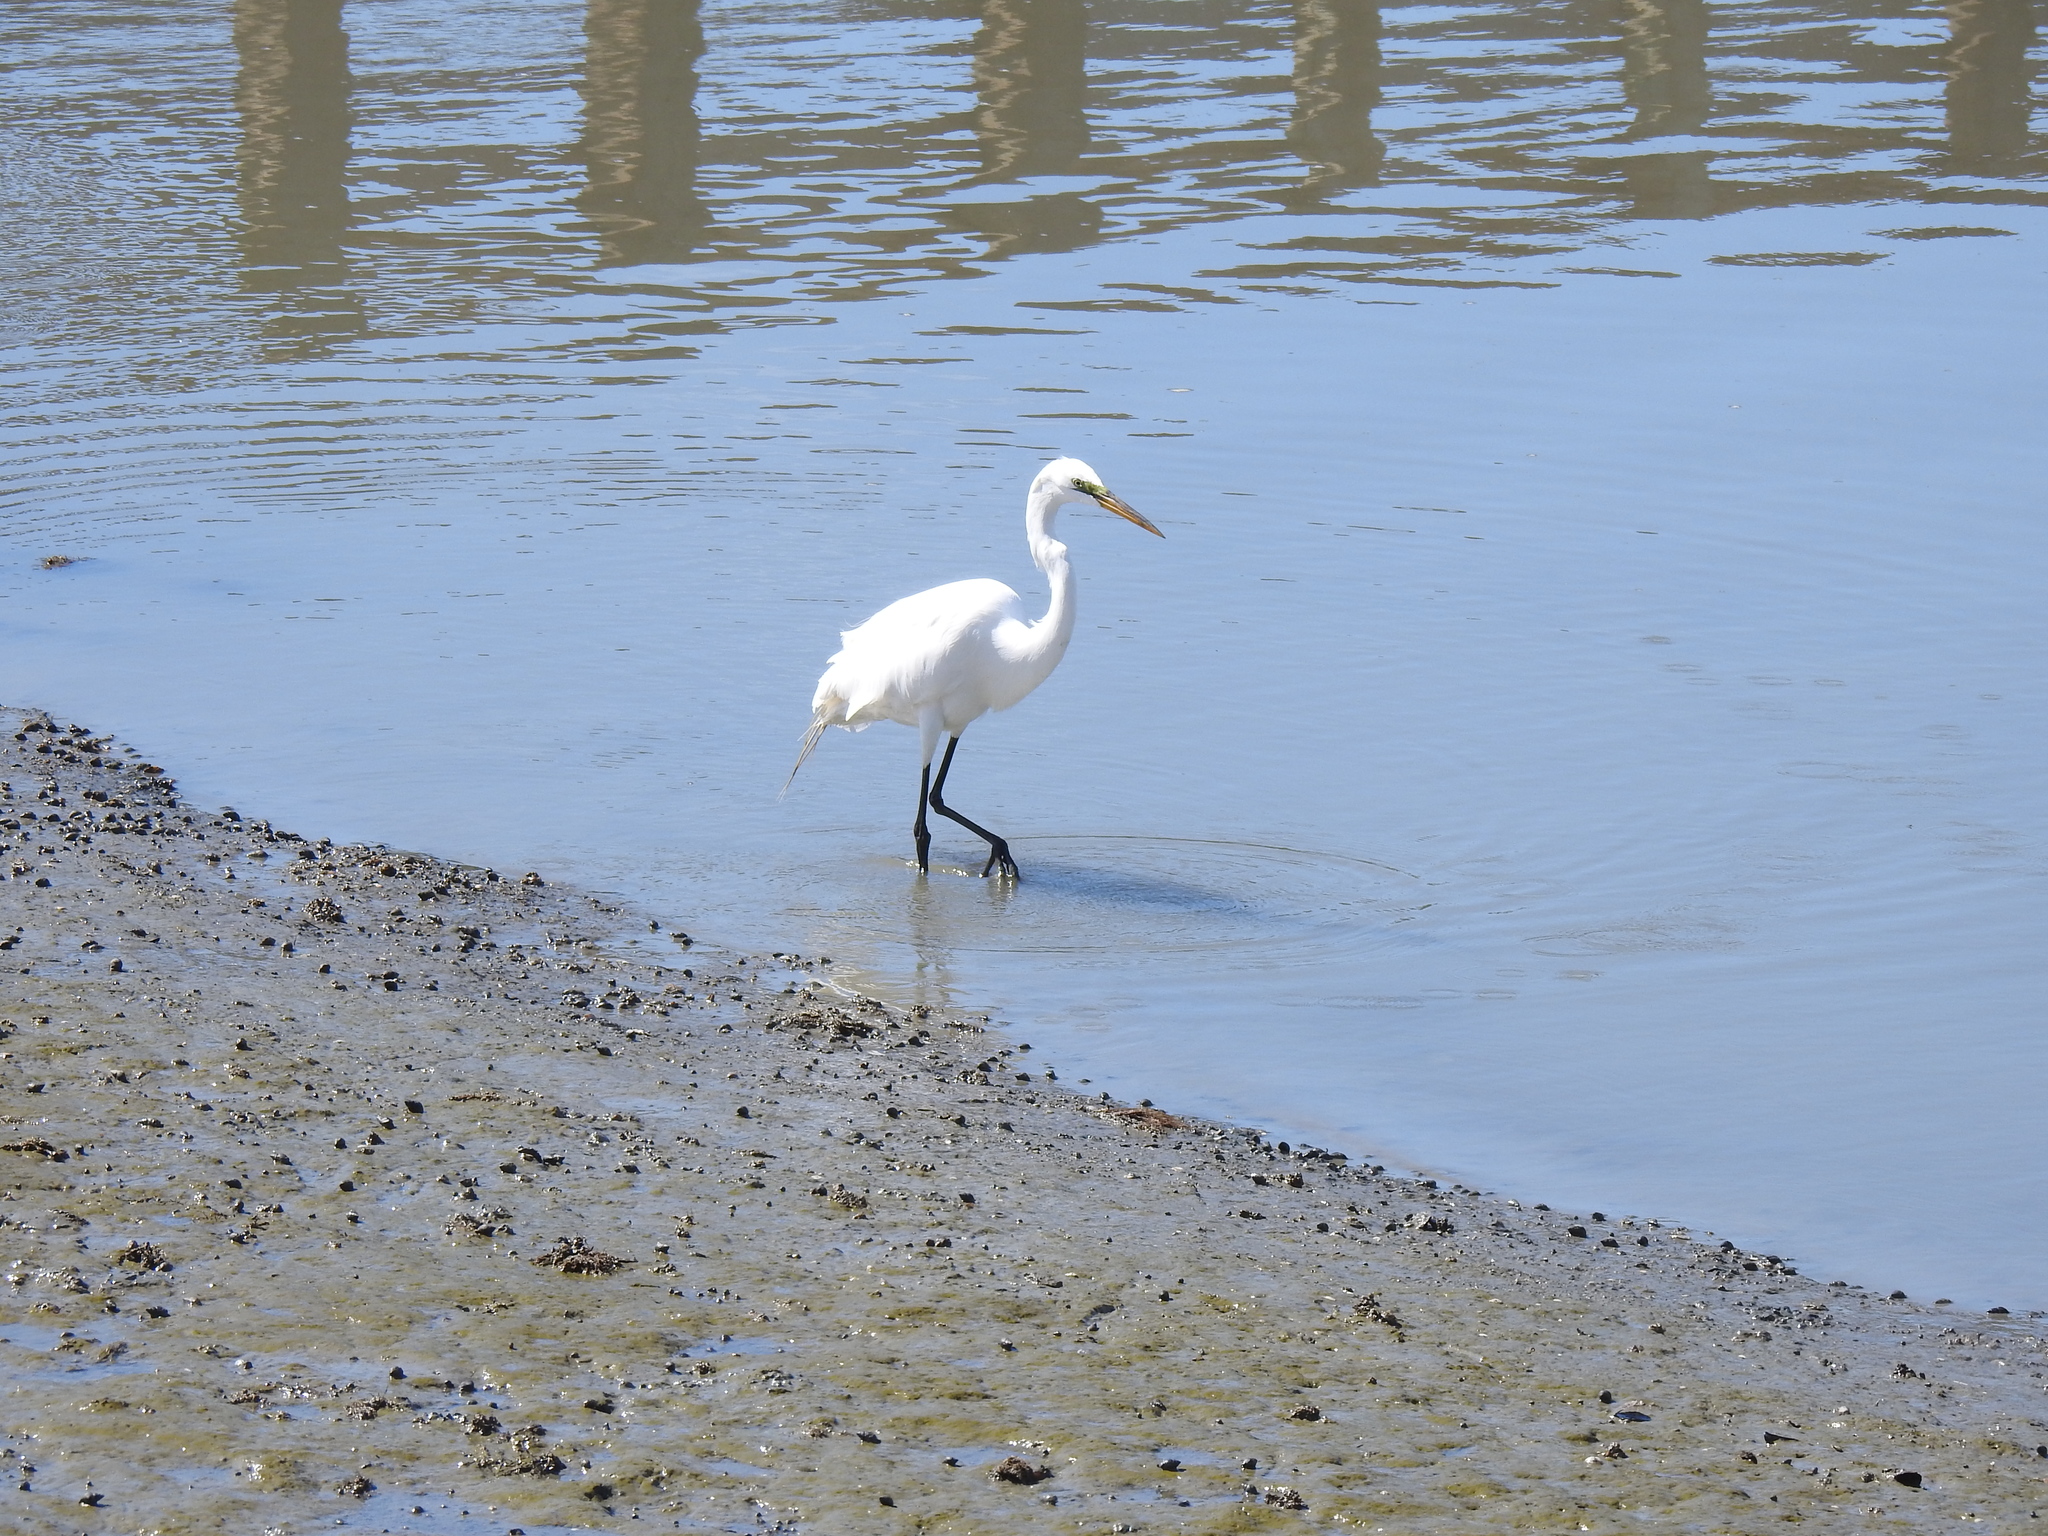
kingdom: Animalia
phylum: Chordata
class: Aves
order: Pelecaniformes
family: Ardeidae
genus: Ardea
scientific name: Ardea alba
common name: Great egret
